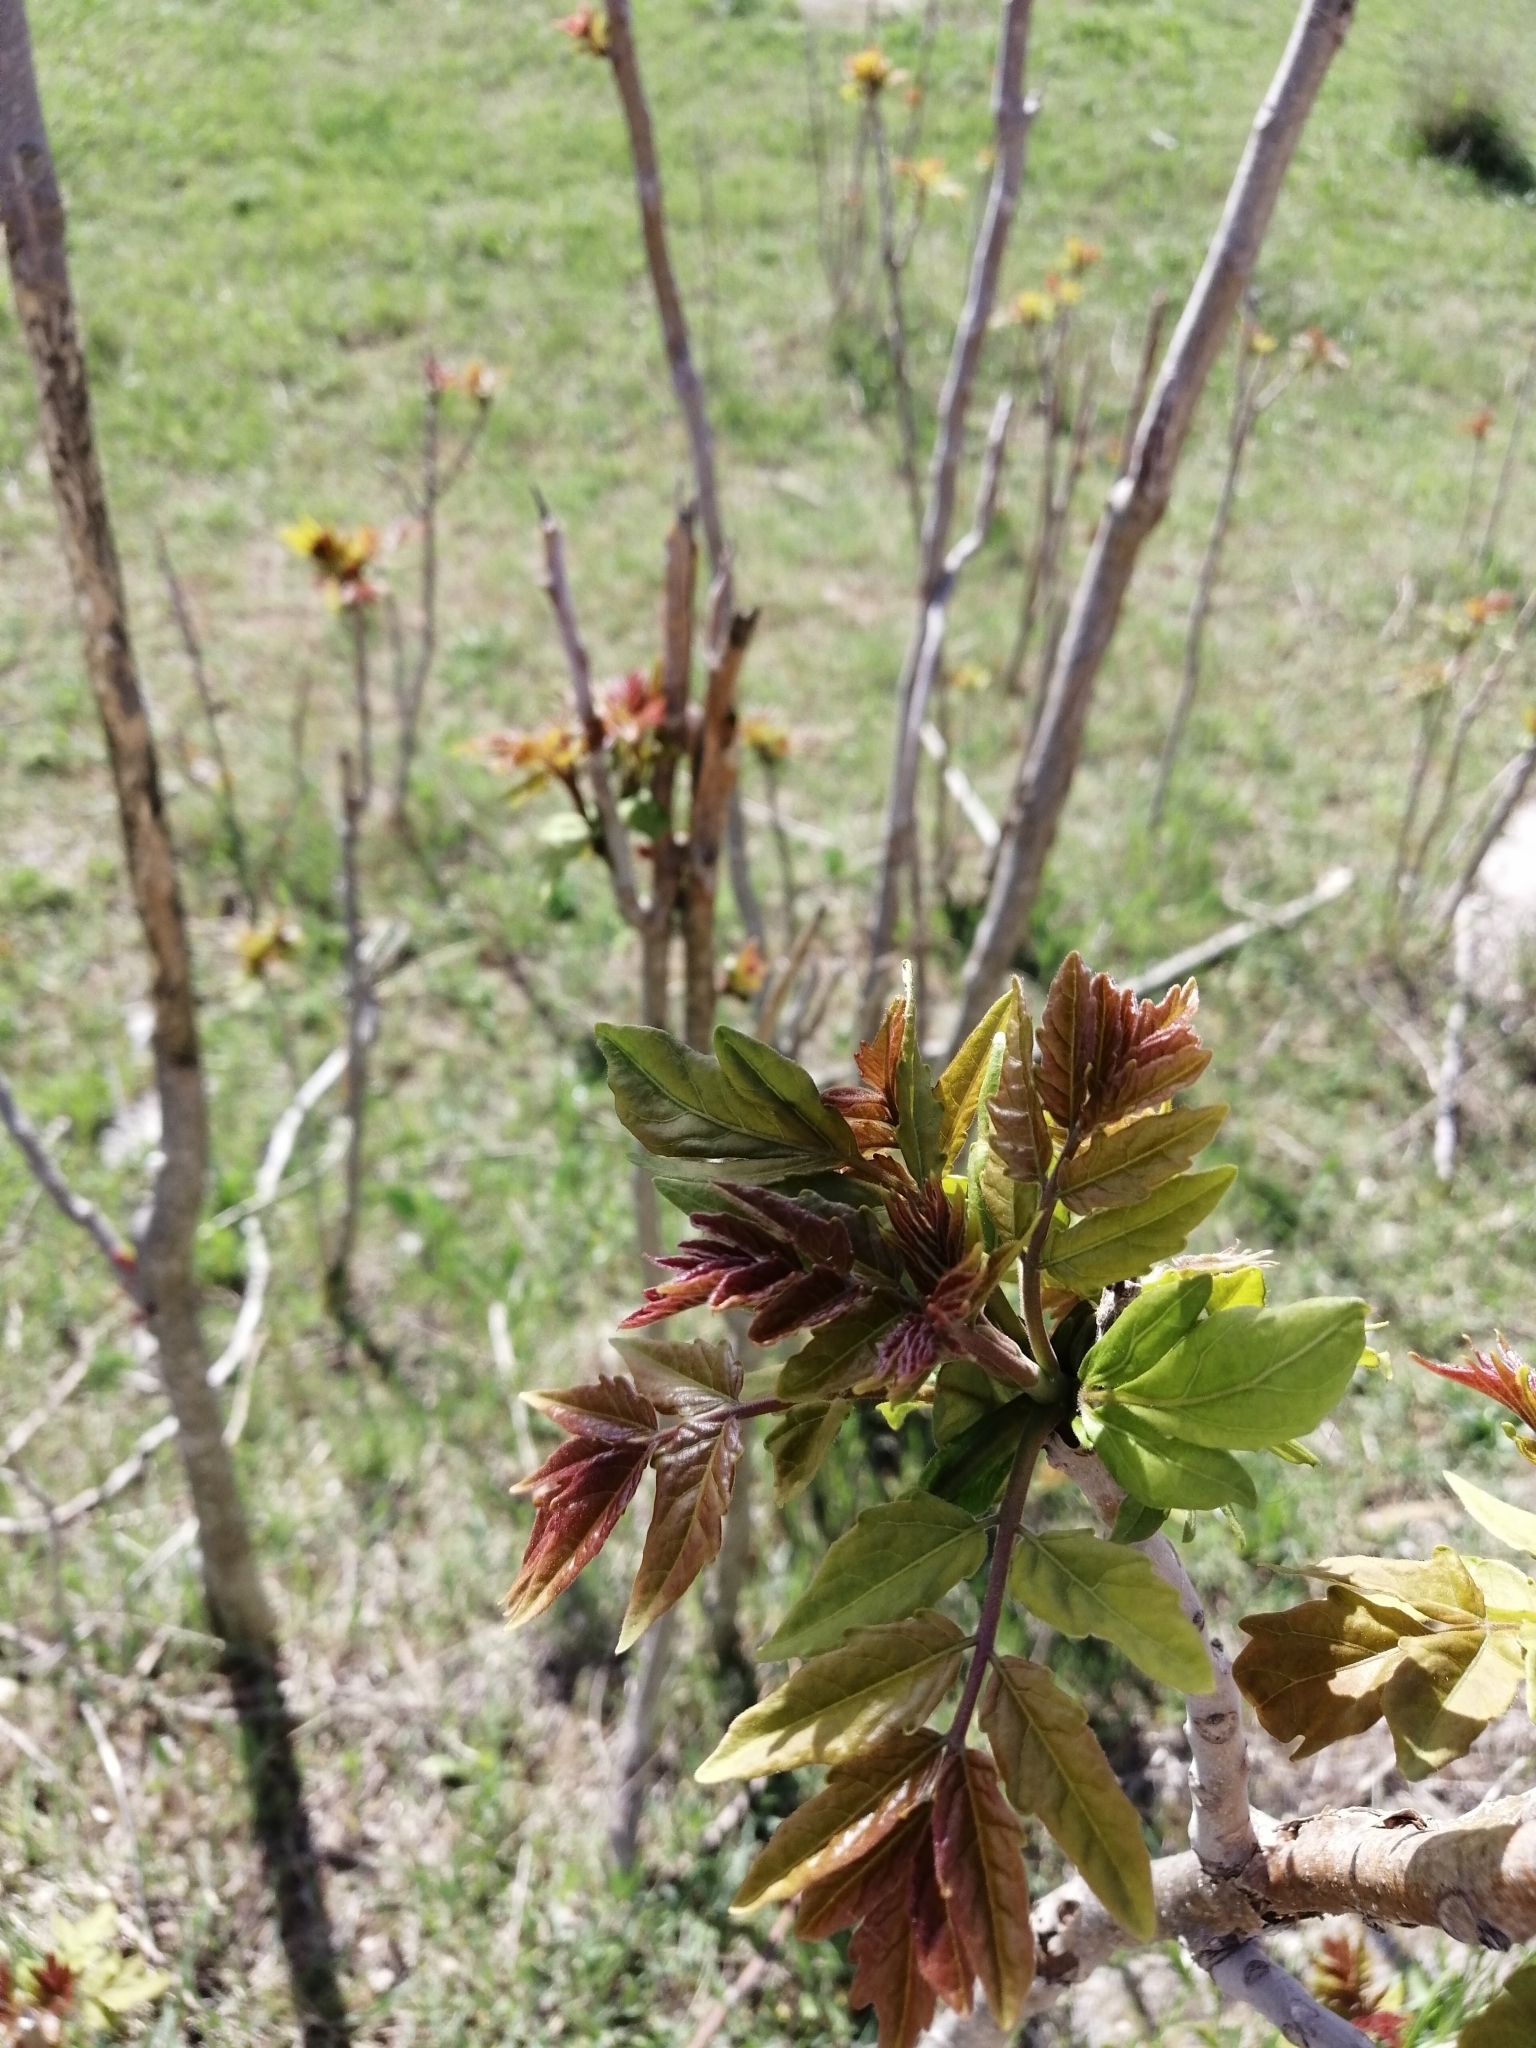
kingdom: Plantae
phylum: Tracheophyta
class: Magnoliopsida
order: Sapindales
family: Simaroubaceae
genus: Ailanthus
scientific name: Ailanthus altissima
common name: Tree-of-heaven
